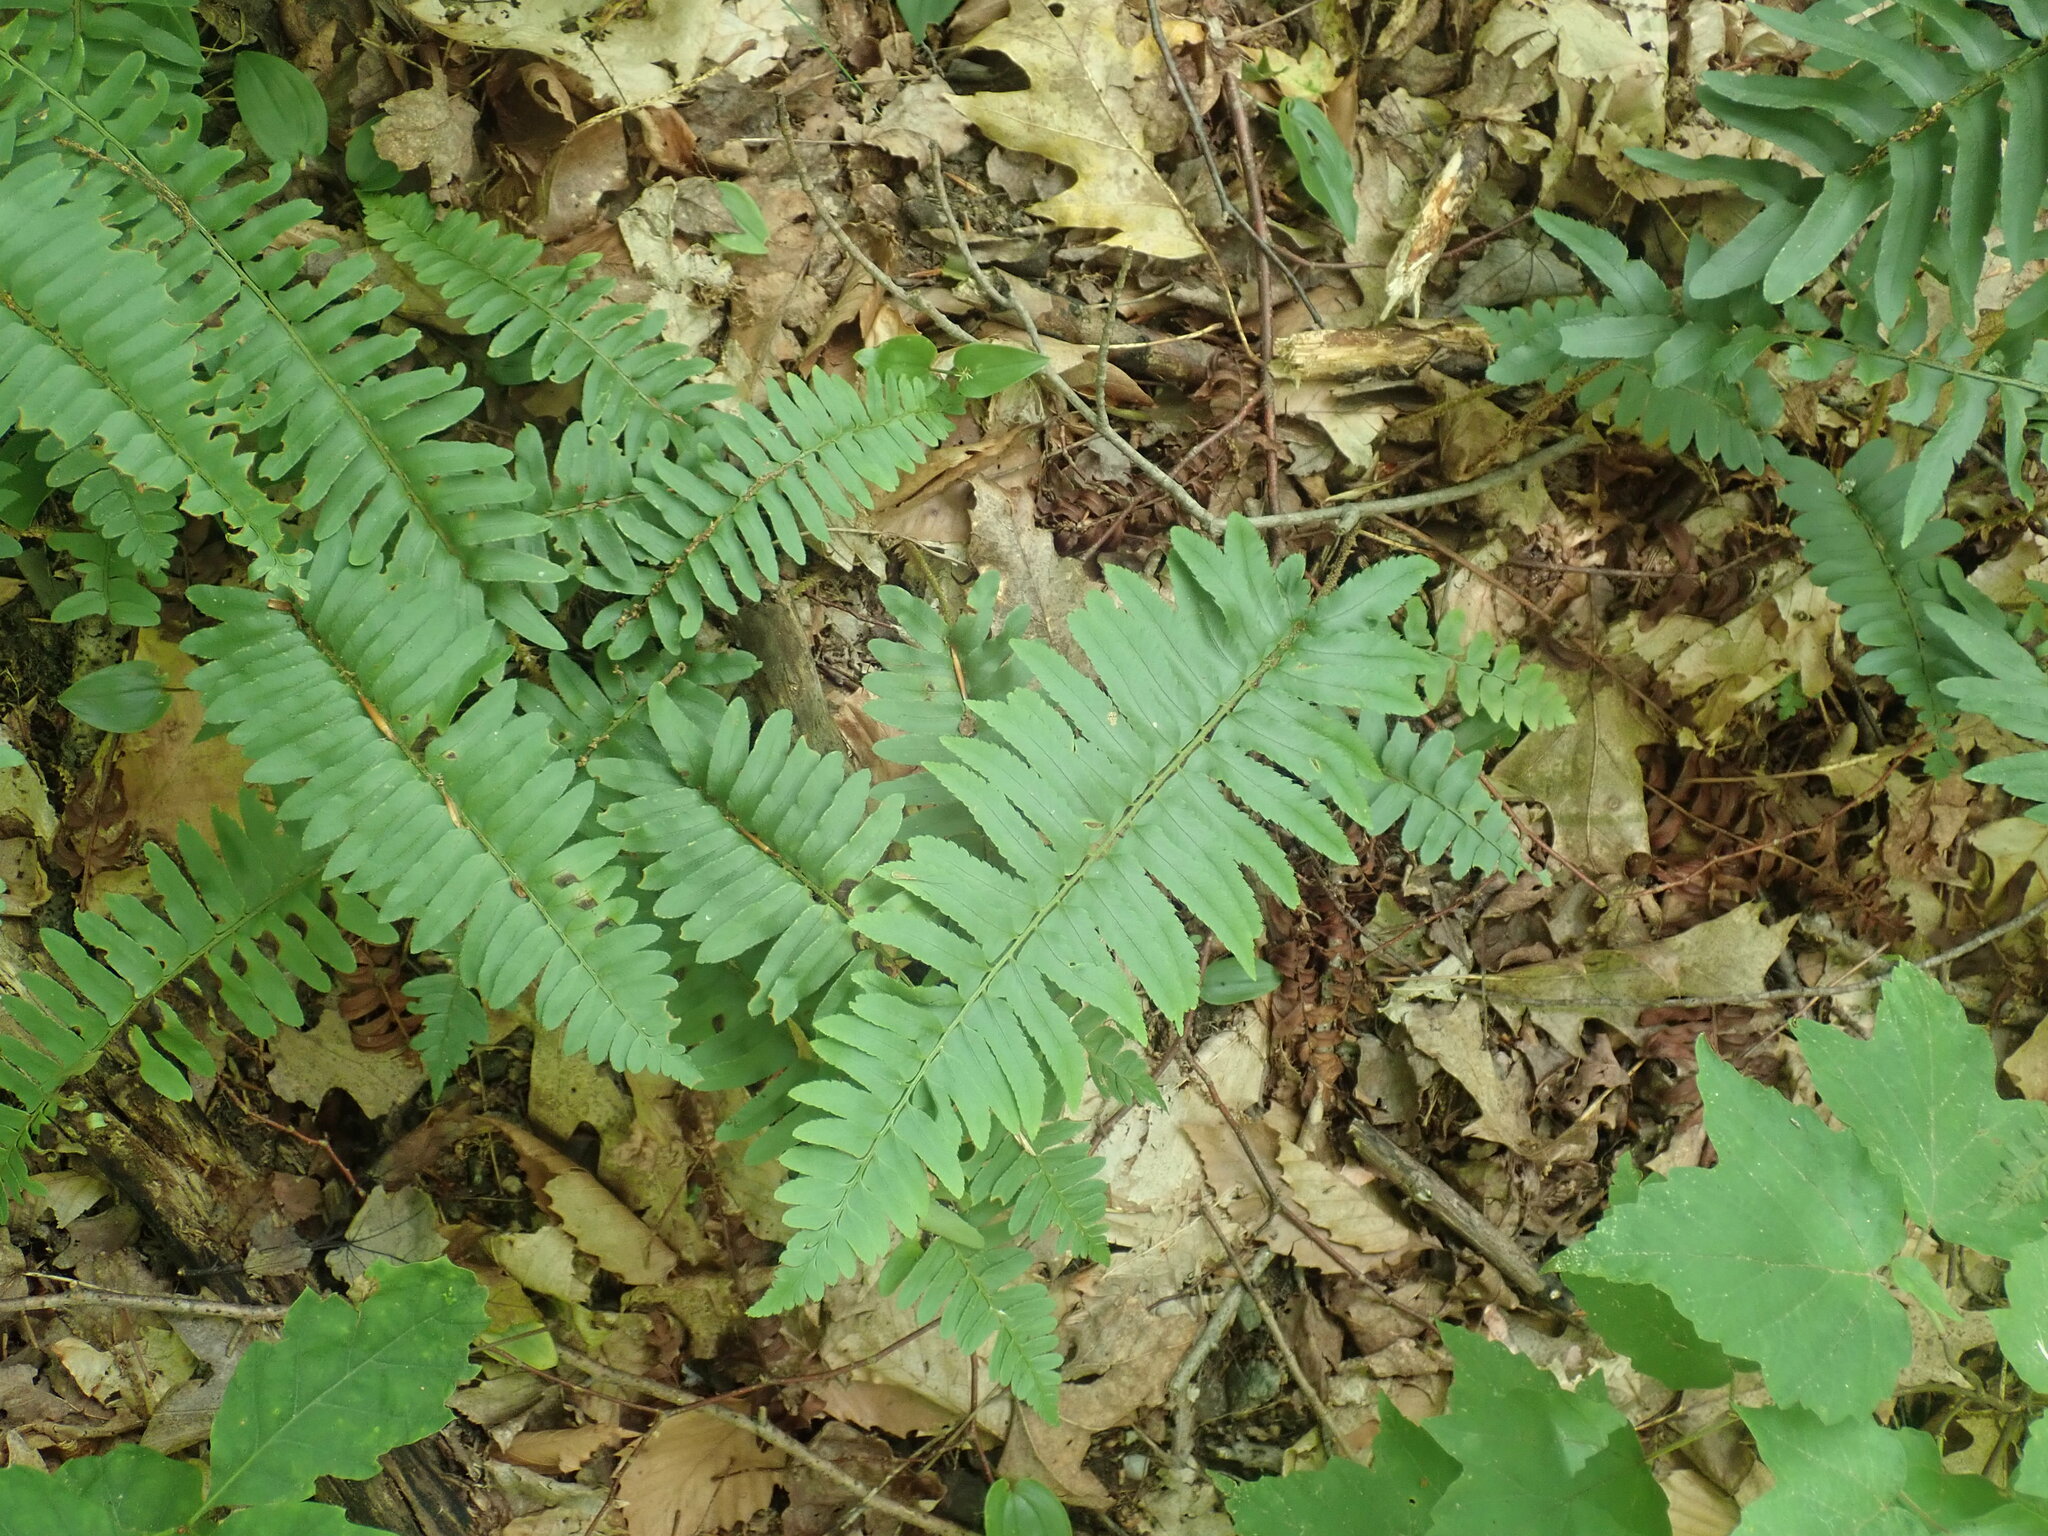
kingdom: Plantae
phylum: Tracheophyta
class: Polypodiopsida
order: Polypodiales
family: Dryopteridaceae
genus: Polystichum
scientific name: Polystichum acrostichoides
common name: Christmas fern
